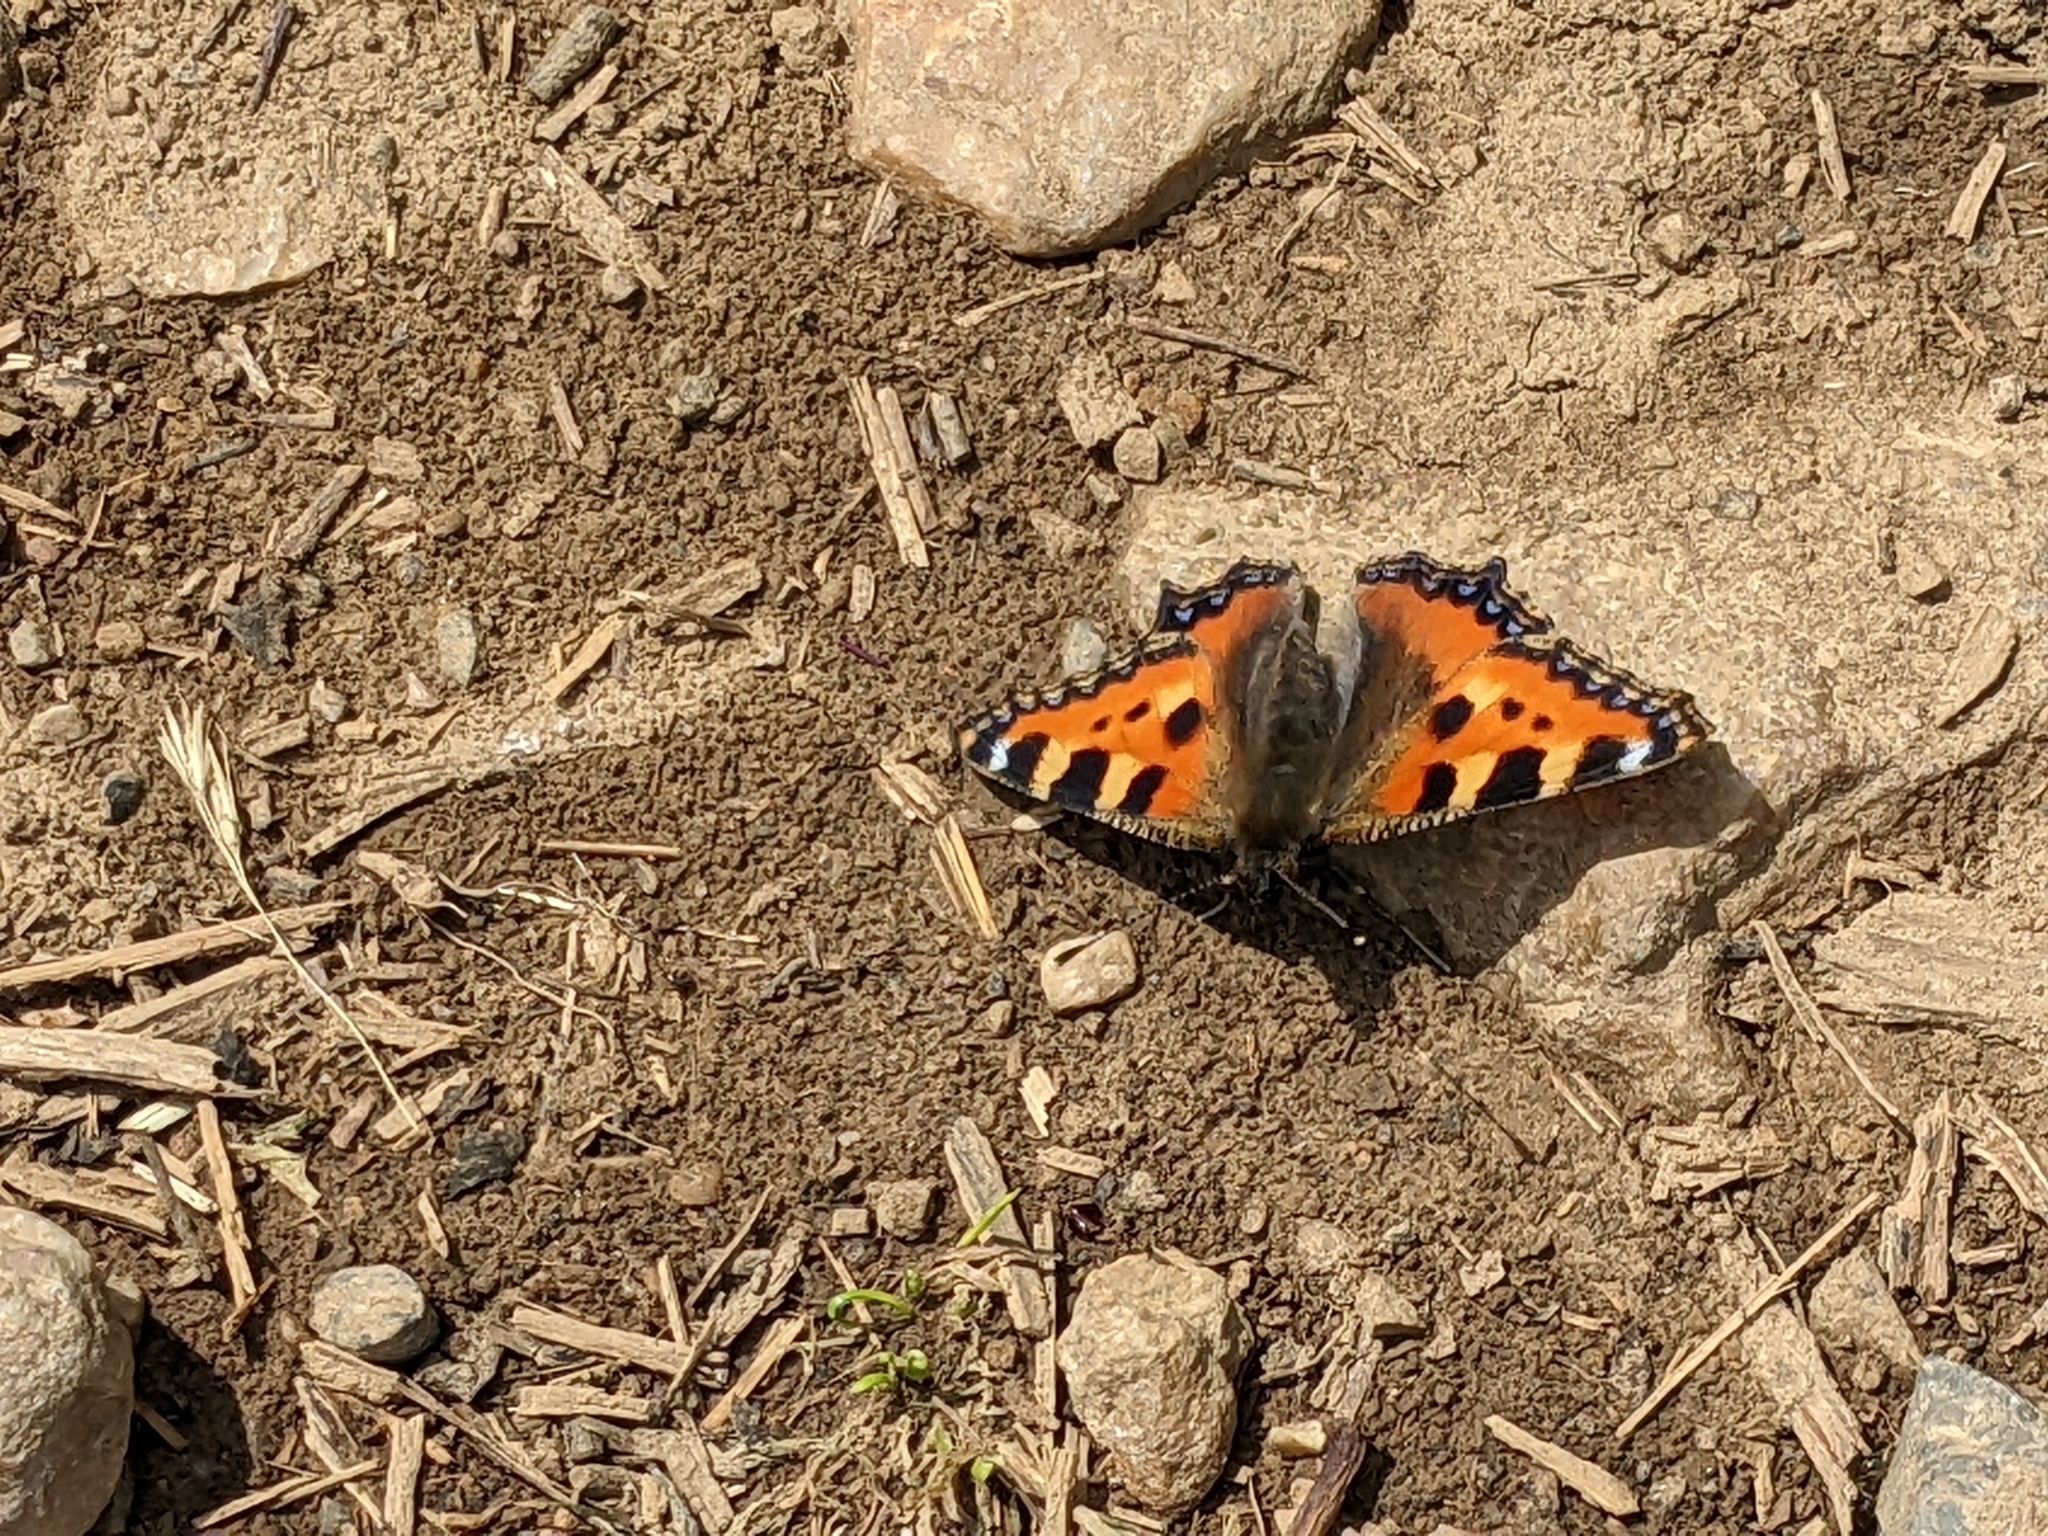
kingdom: Animalia
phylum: Arthropoda
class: Insecta
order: Lepidoptera
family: Nymphalidae
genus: Aglais
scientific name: Aglais urticae
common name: Small tortoiseshell
